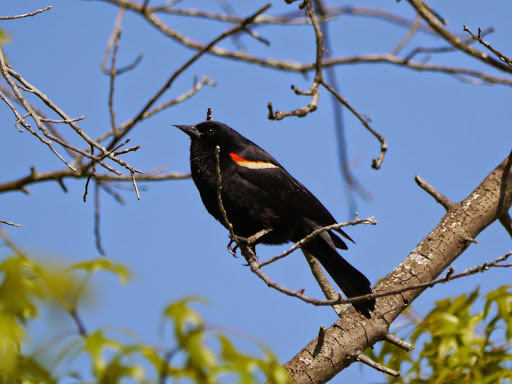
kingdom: Animalia
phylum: Chordata
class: Aves
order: Passeriformes
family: Icteridae
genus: Agelaius
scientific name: Agelaius phoeniceus
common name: Red-winged blackbird
